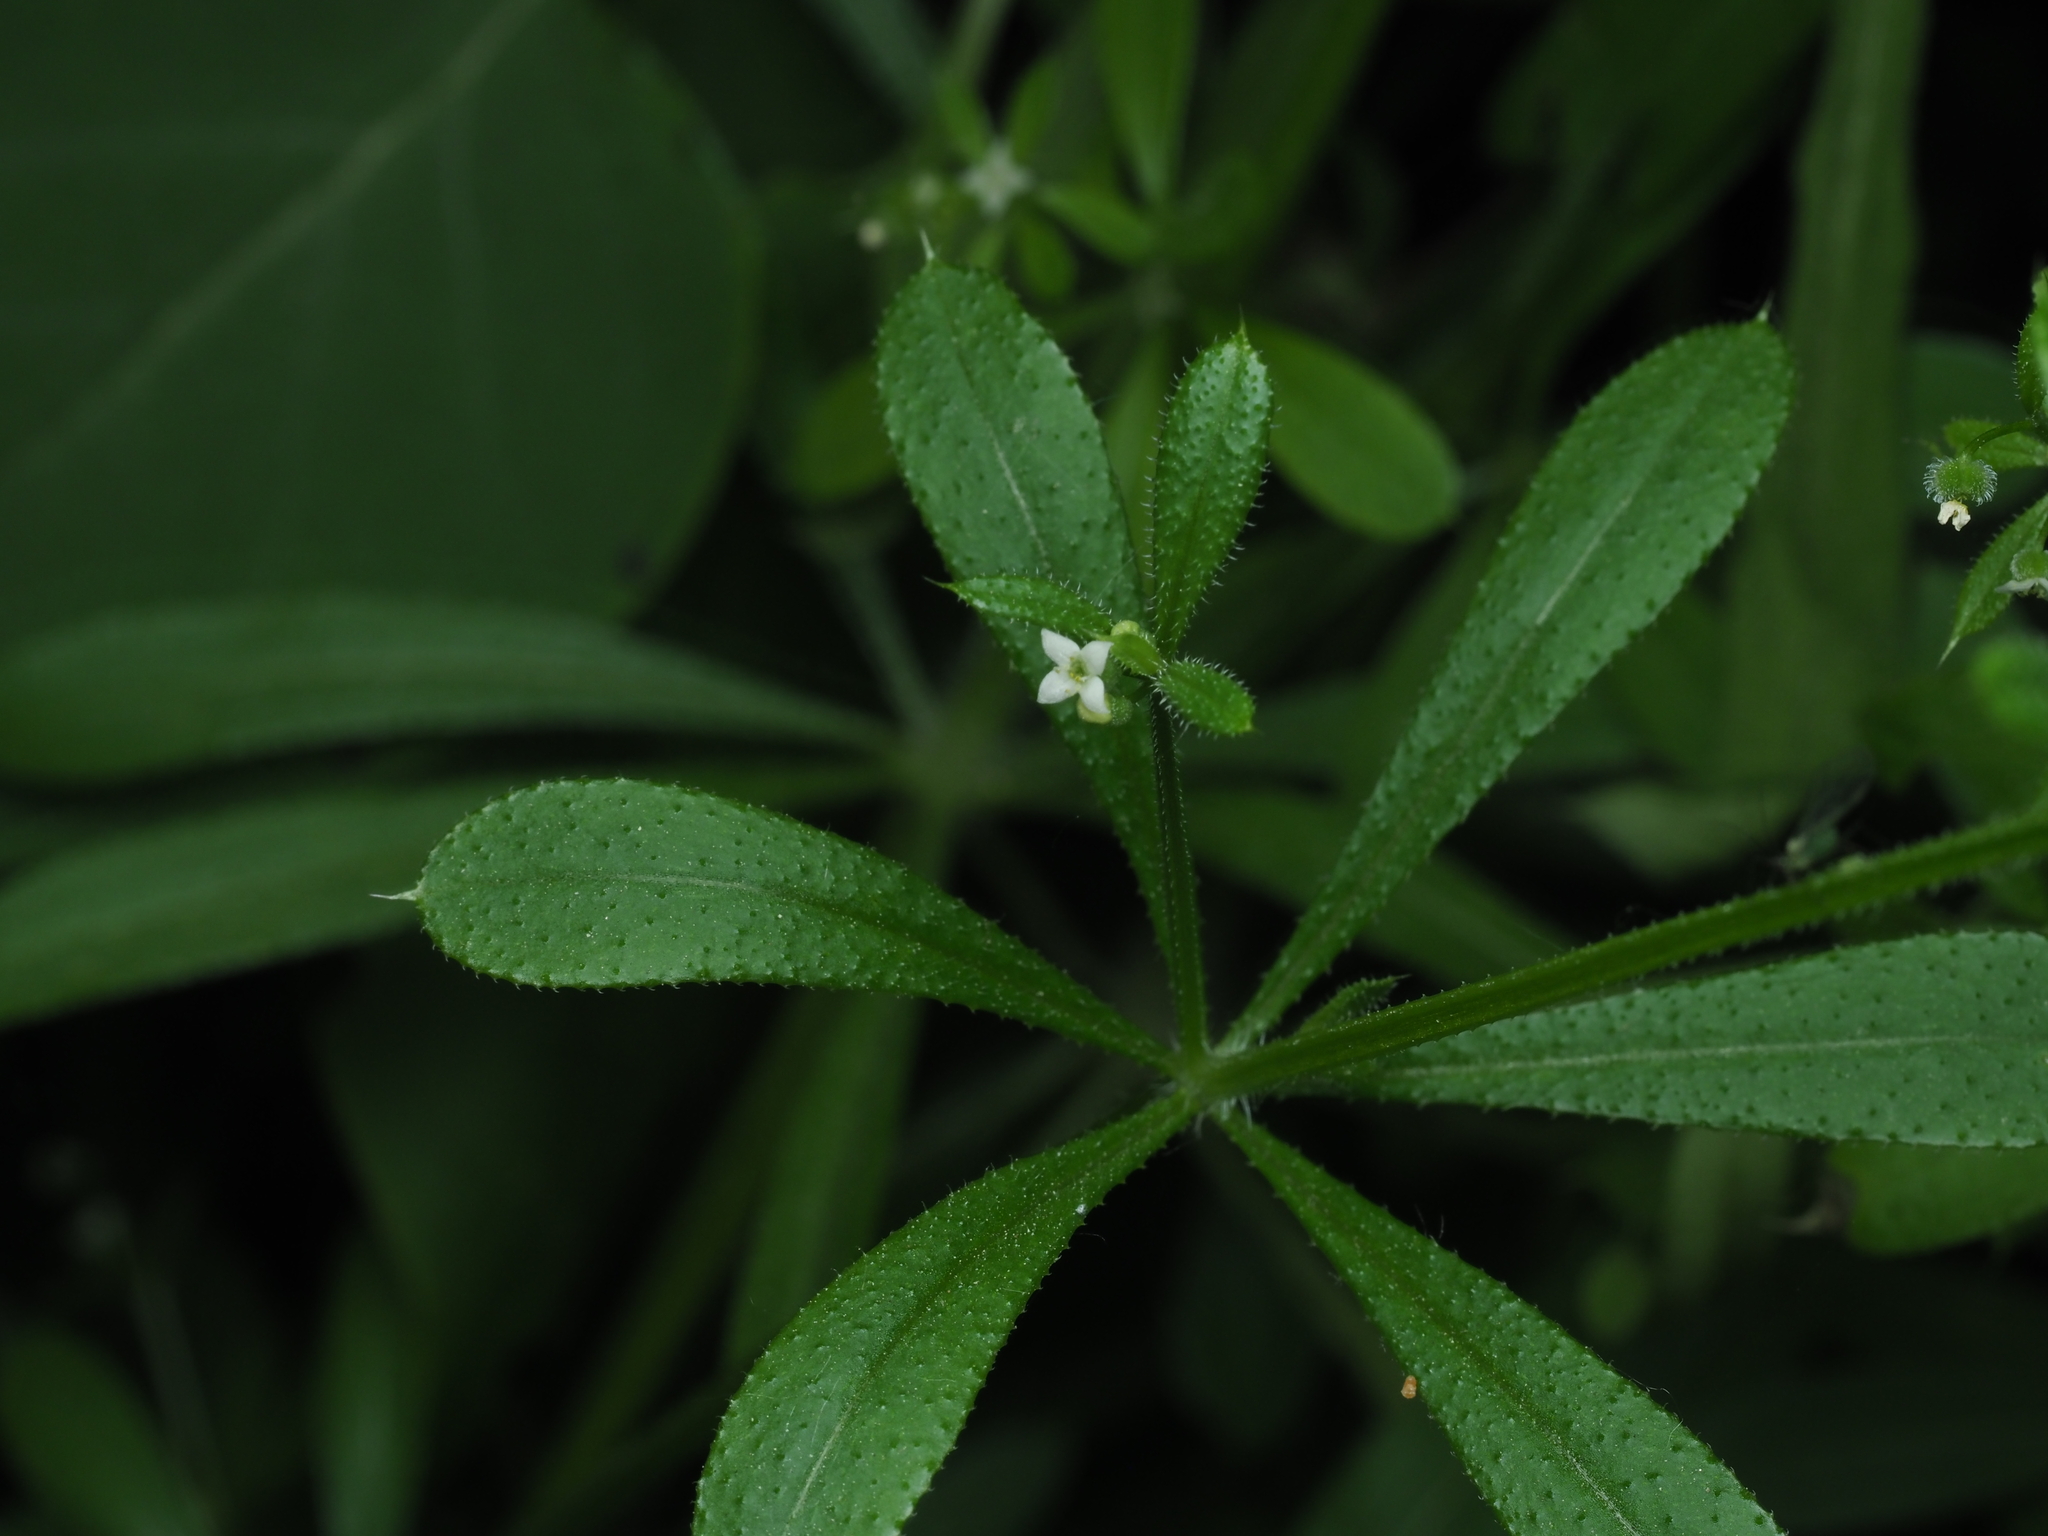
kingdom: Plantae
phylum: Tracheophyta
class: Magnoliopsida
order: Gentianales
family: Rubiaceae
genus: Galium
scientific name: Galium aparine
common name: Cleavers
